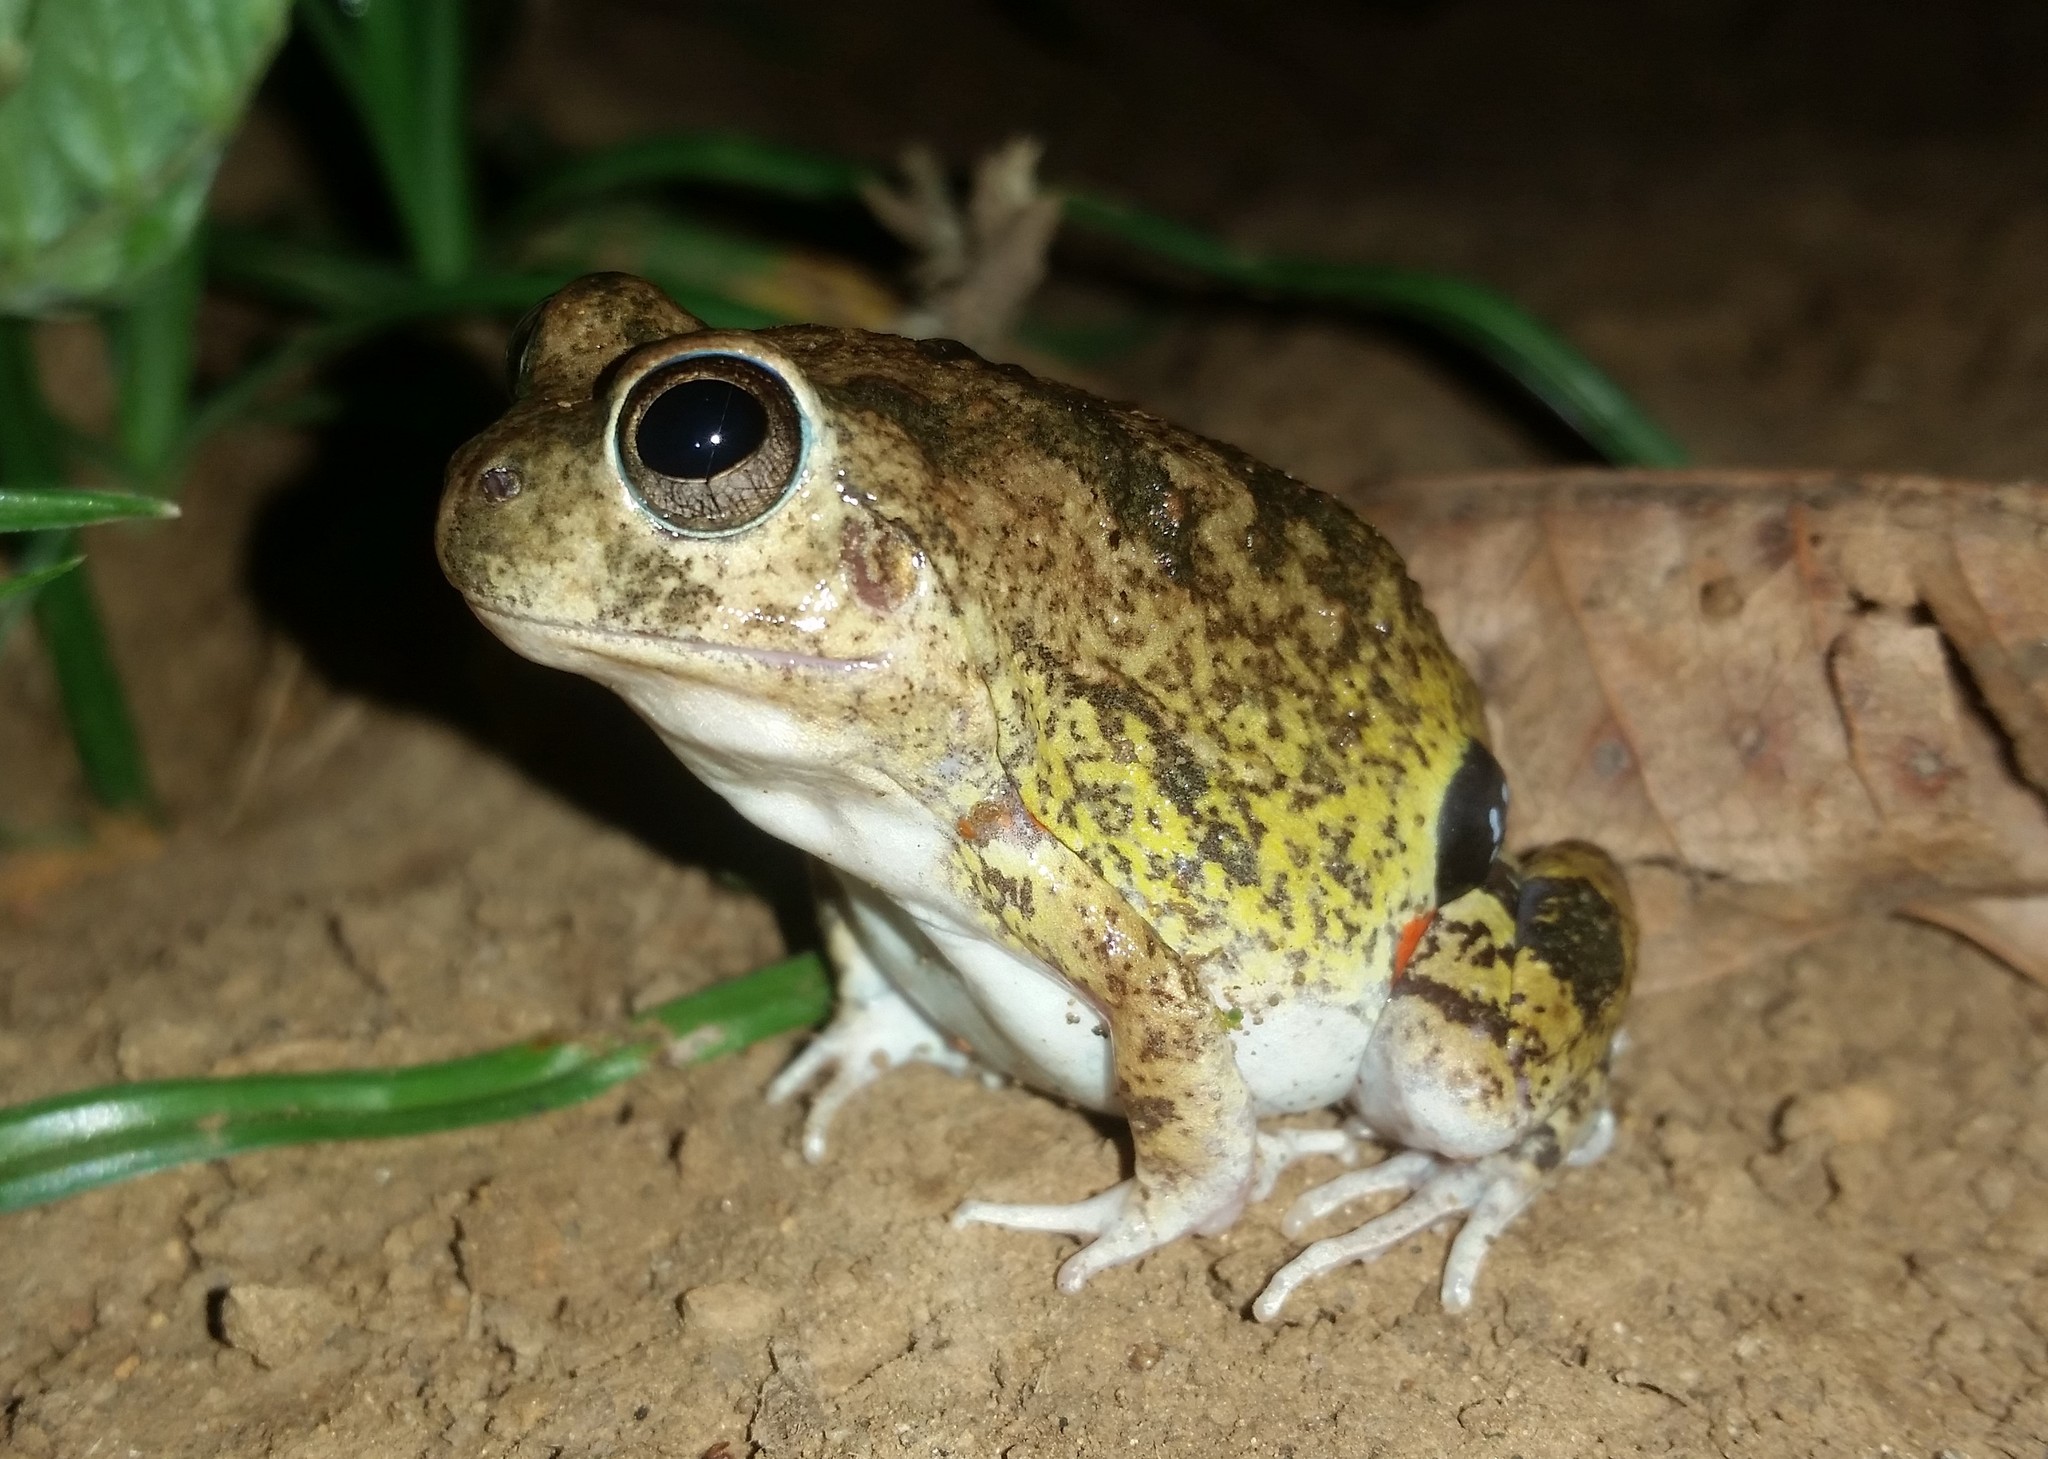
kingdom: Animalia
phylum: Chordata
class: Amphibia
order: Anura
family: Leptodactylidae
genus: Pleurodema
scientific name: Pleurodema brachyops
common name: Colombian four-eyed frog
